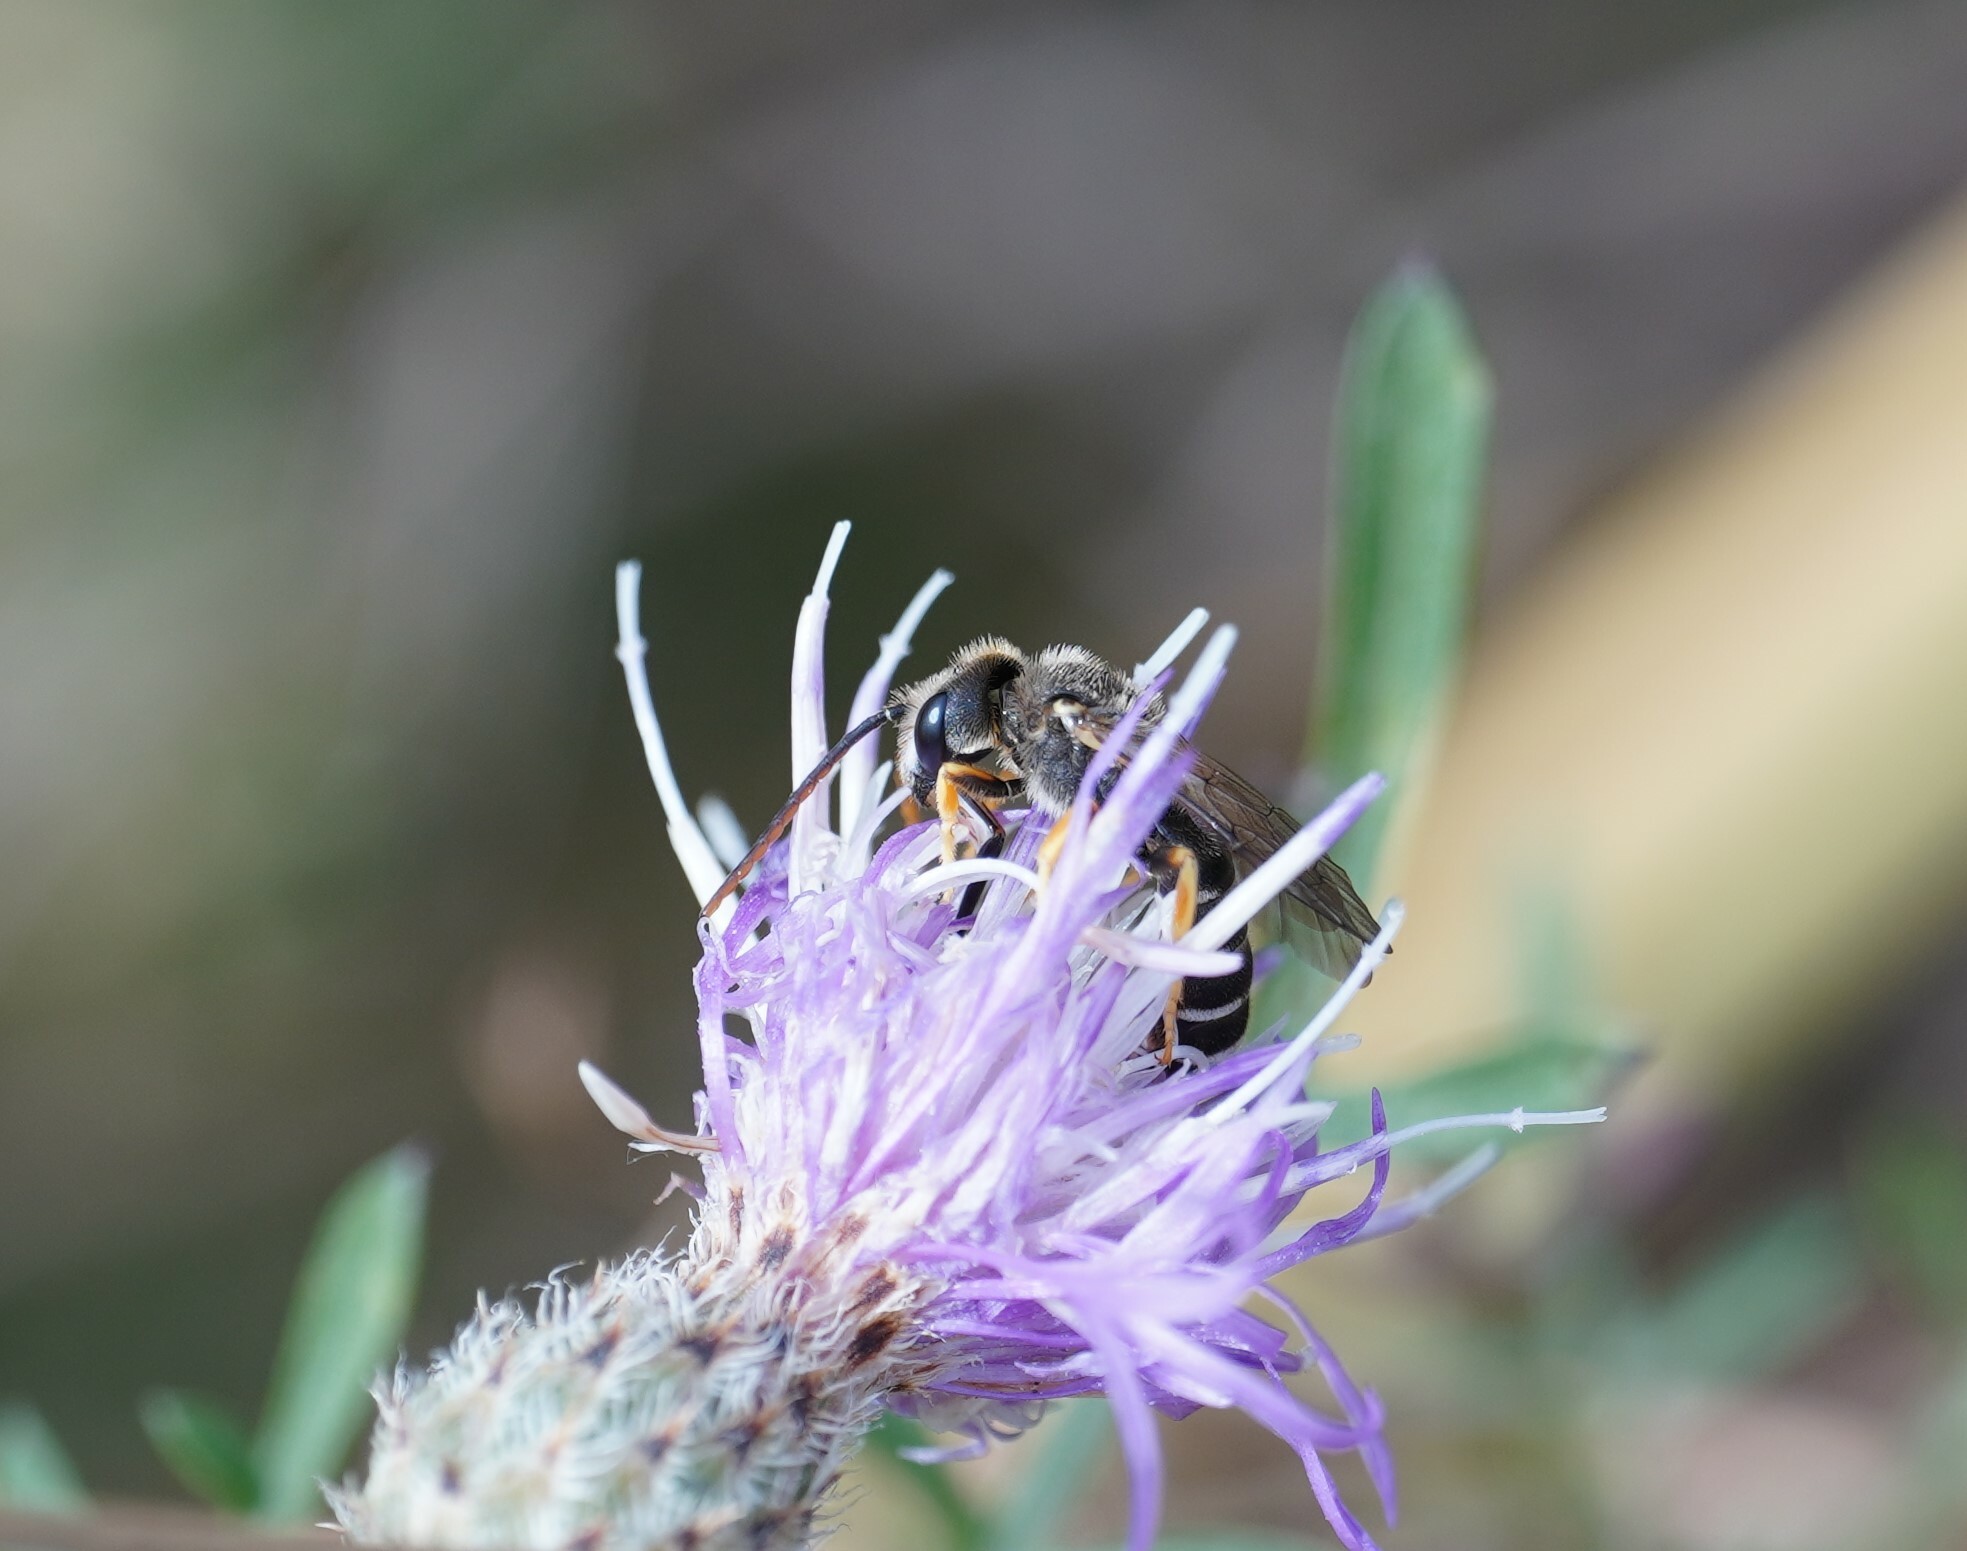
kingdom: Animalia
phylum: Arthropoda
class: Insecta
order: Hymenoptera
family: Halictidae
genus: Halictus
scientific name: Halictus simplex
